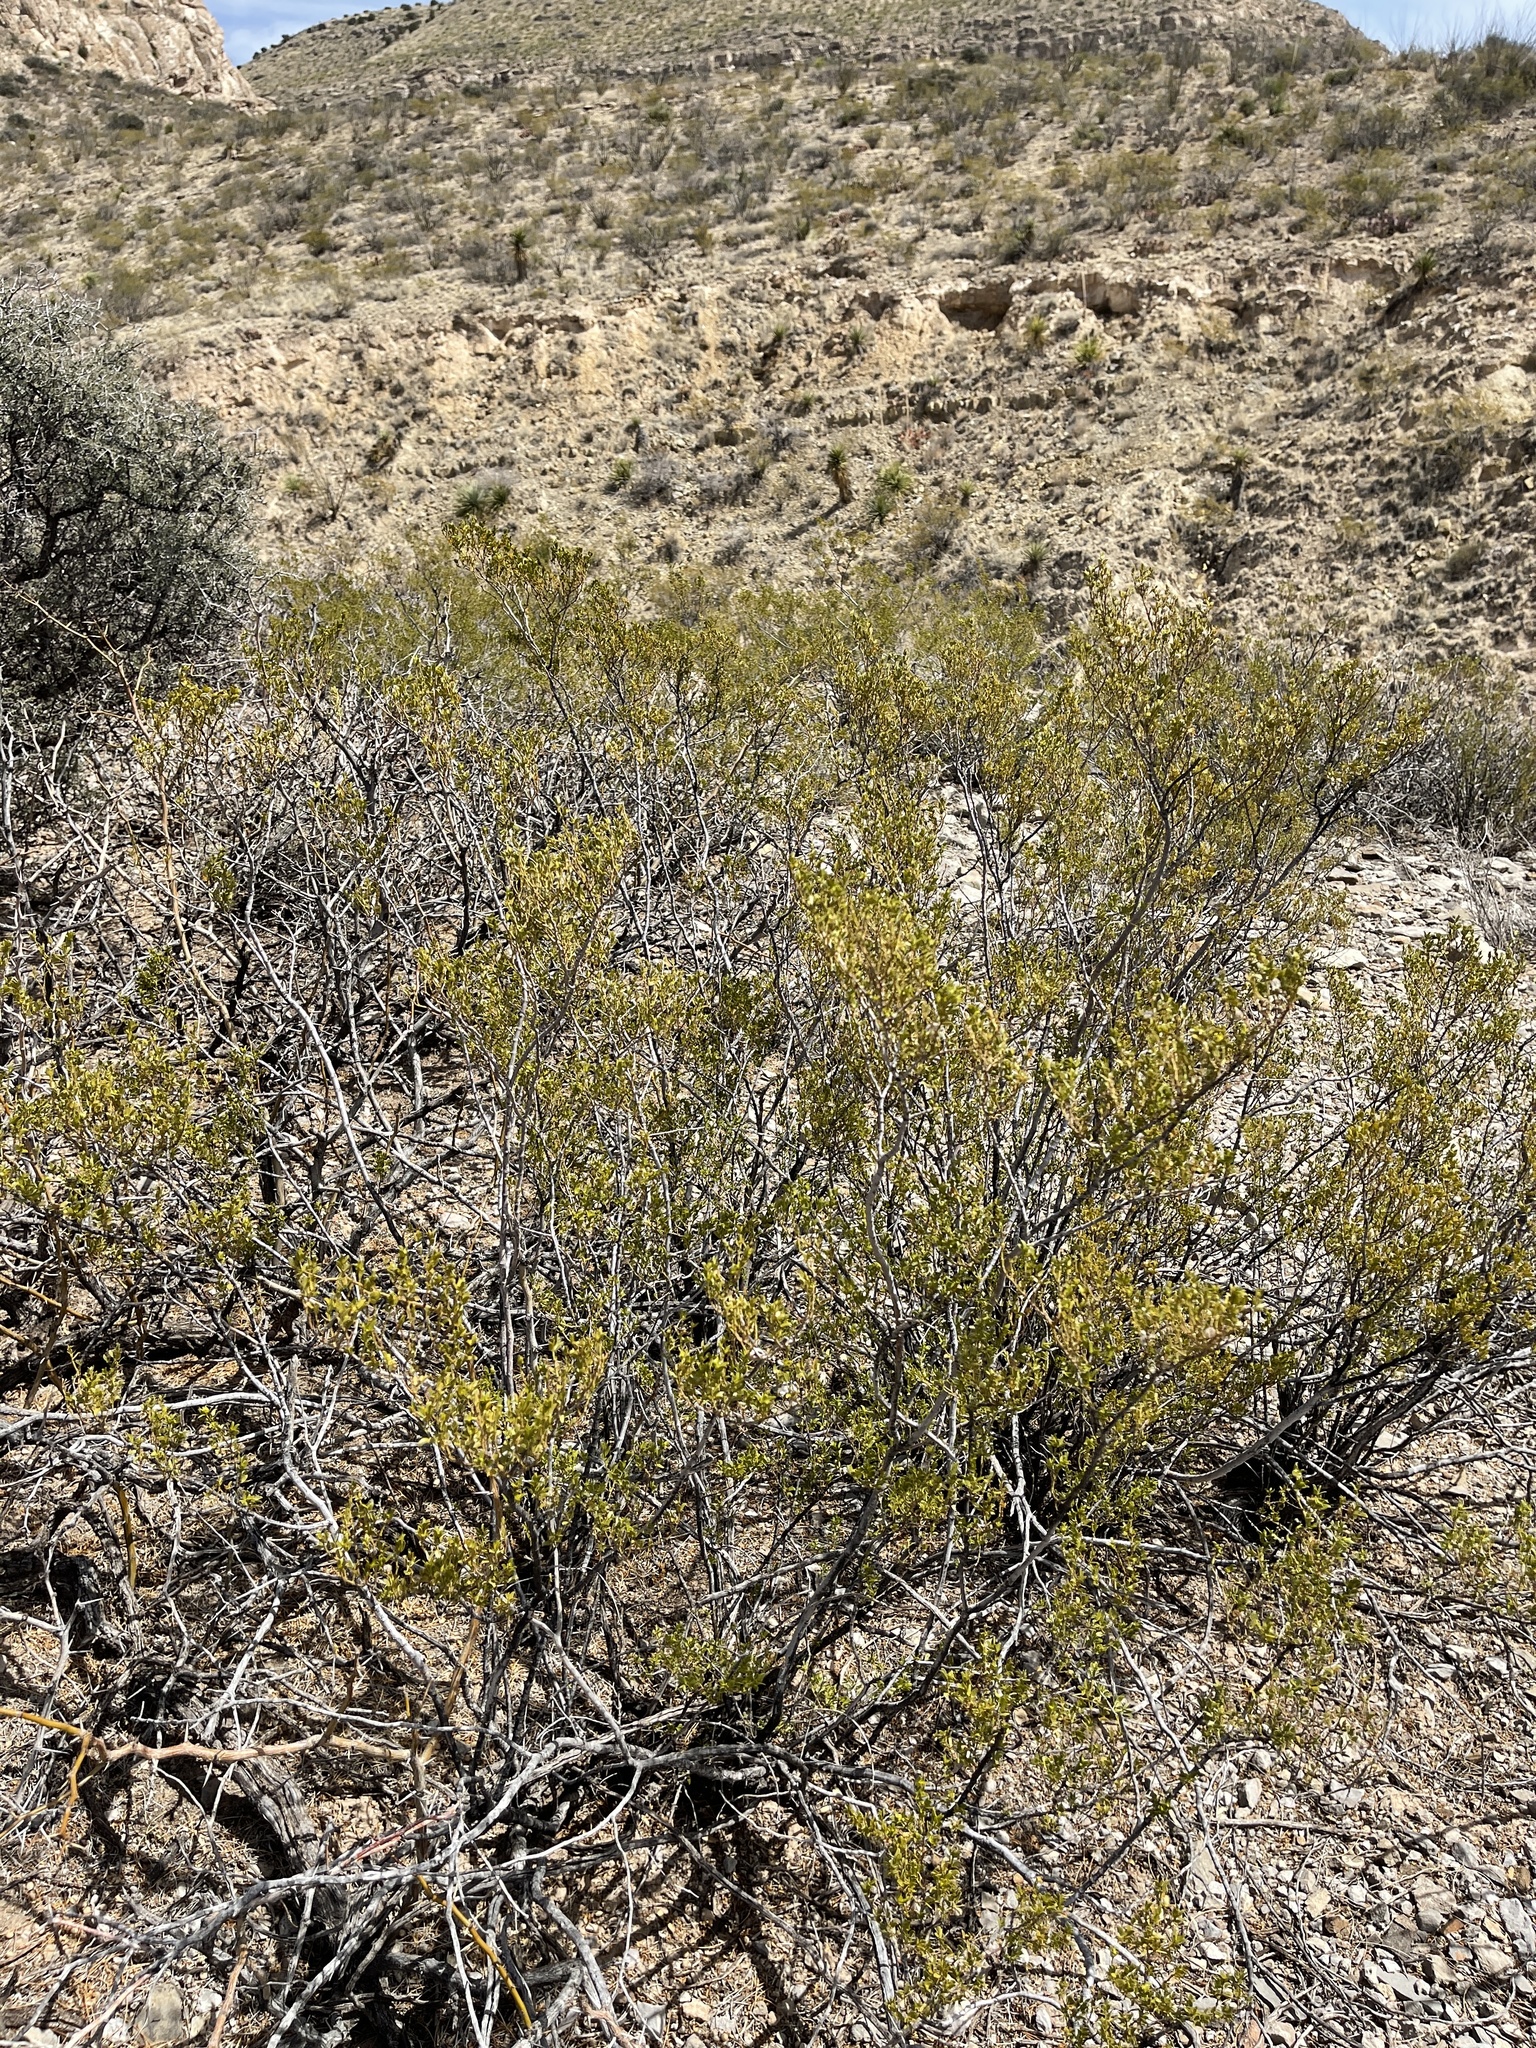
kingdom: Plantae
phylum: Tracheophyta
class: Magnoliopsida
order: Zygophyllales
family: Zygophyllaceae
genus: Larrea
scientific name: Larrea tridentata
